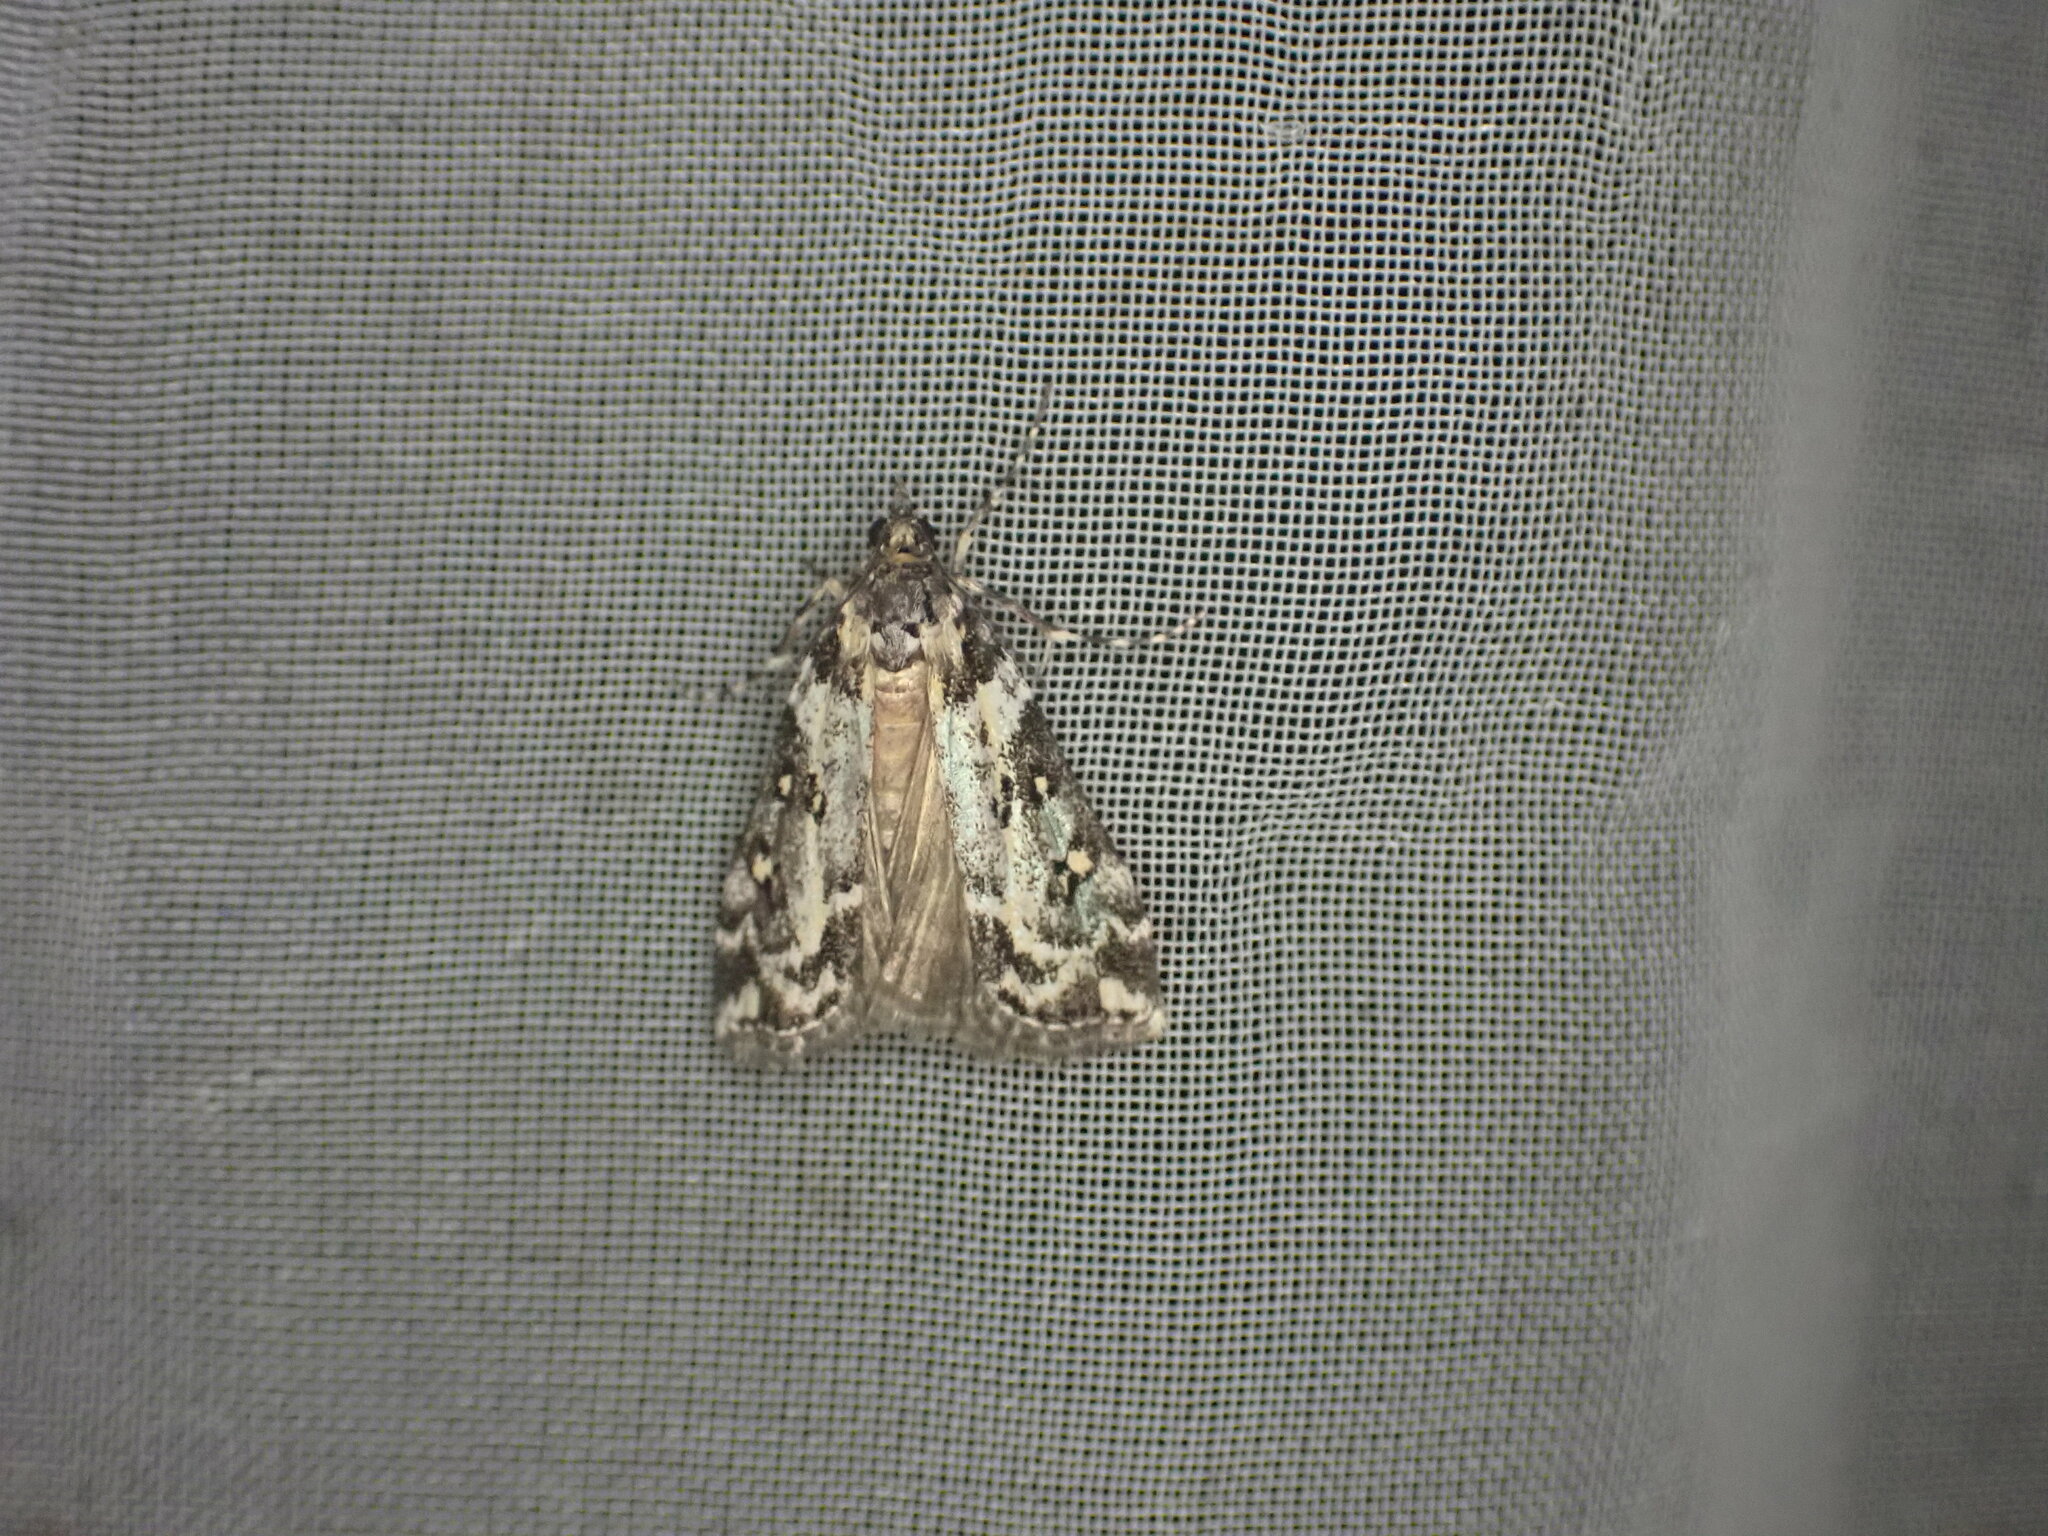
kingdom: Animalia
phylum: Arthropoda
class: Insecta
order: Lepidoptera
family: Crambidae
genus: Eudonia
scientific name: Eudonia diphtheralis
